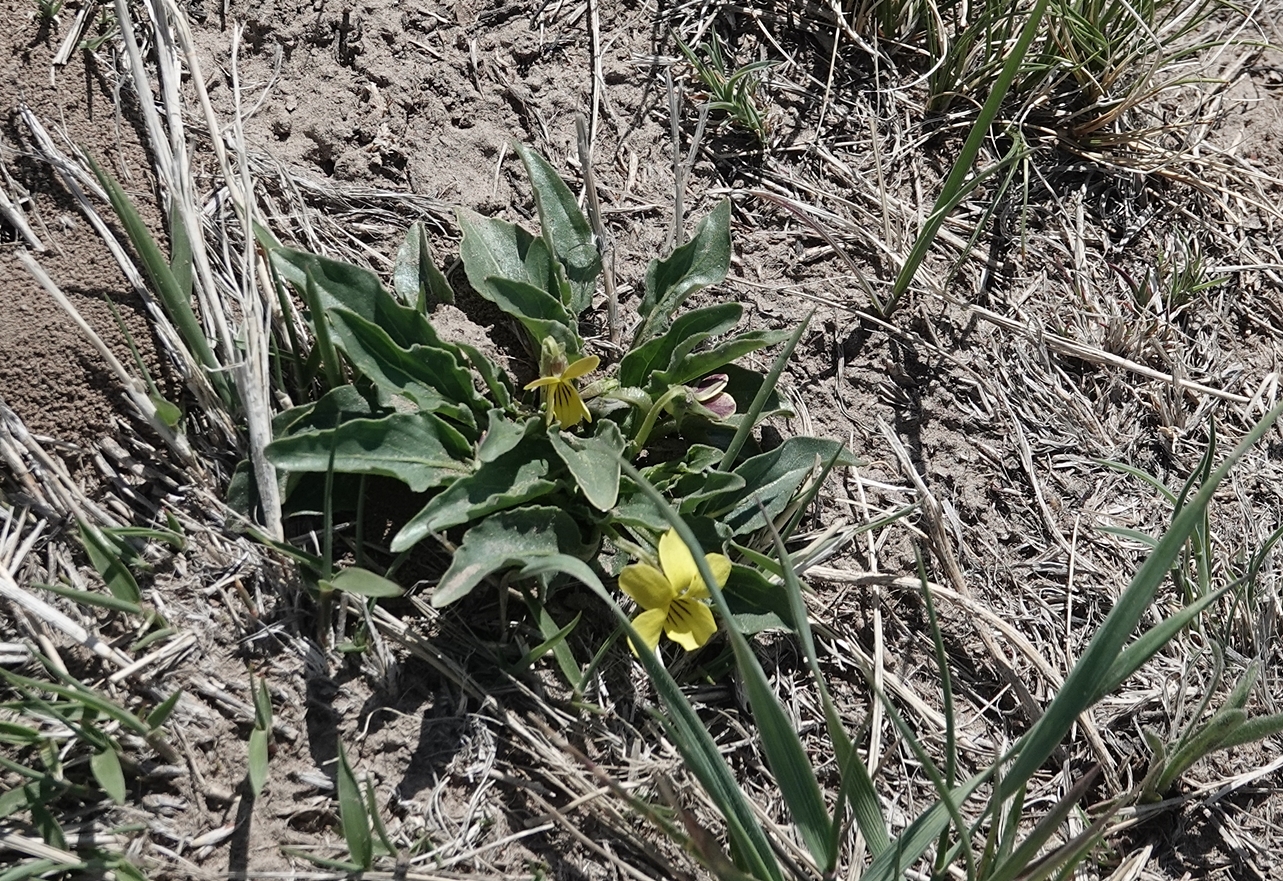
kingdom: Plantae
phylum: Tracheophyta
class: Magnoliopsida
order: Malpighiales
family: Violaceae
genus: Viola
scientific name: Viola nuttallii
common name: Yellow prairie violet
